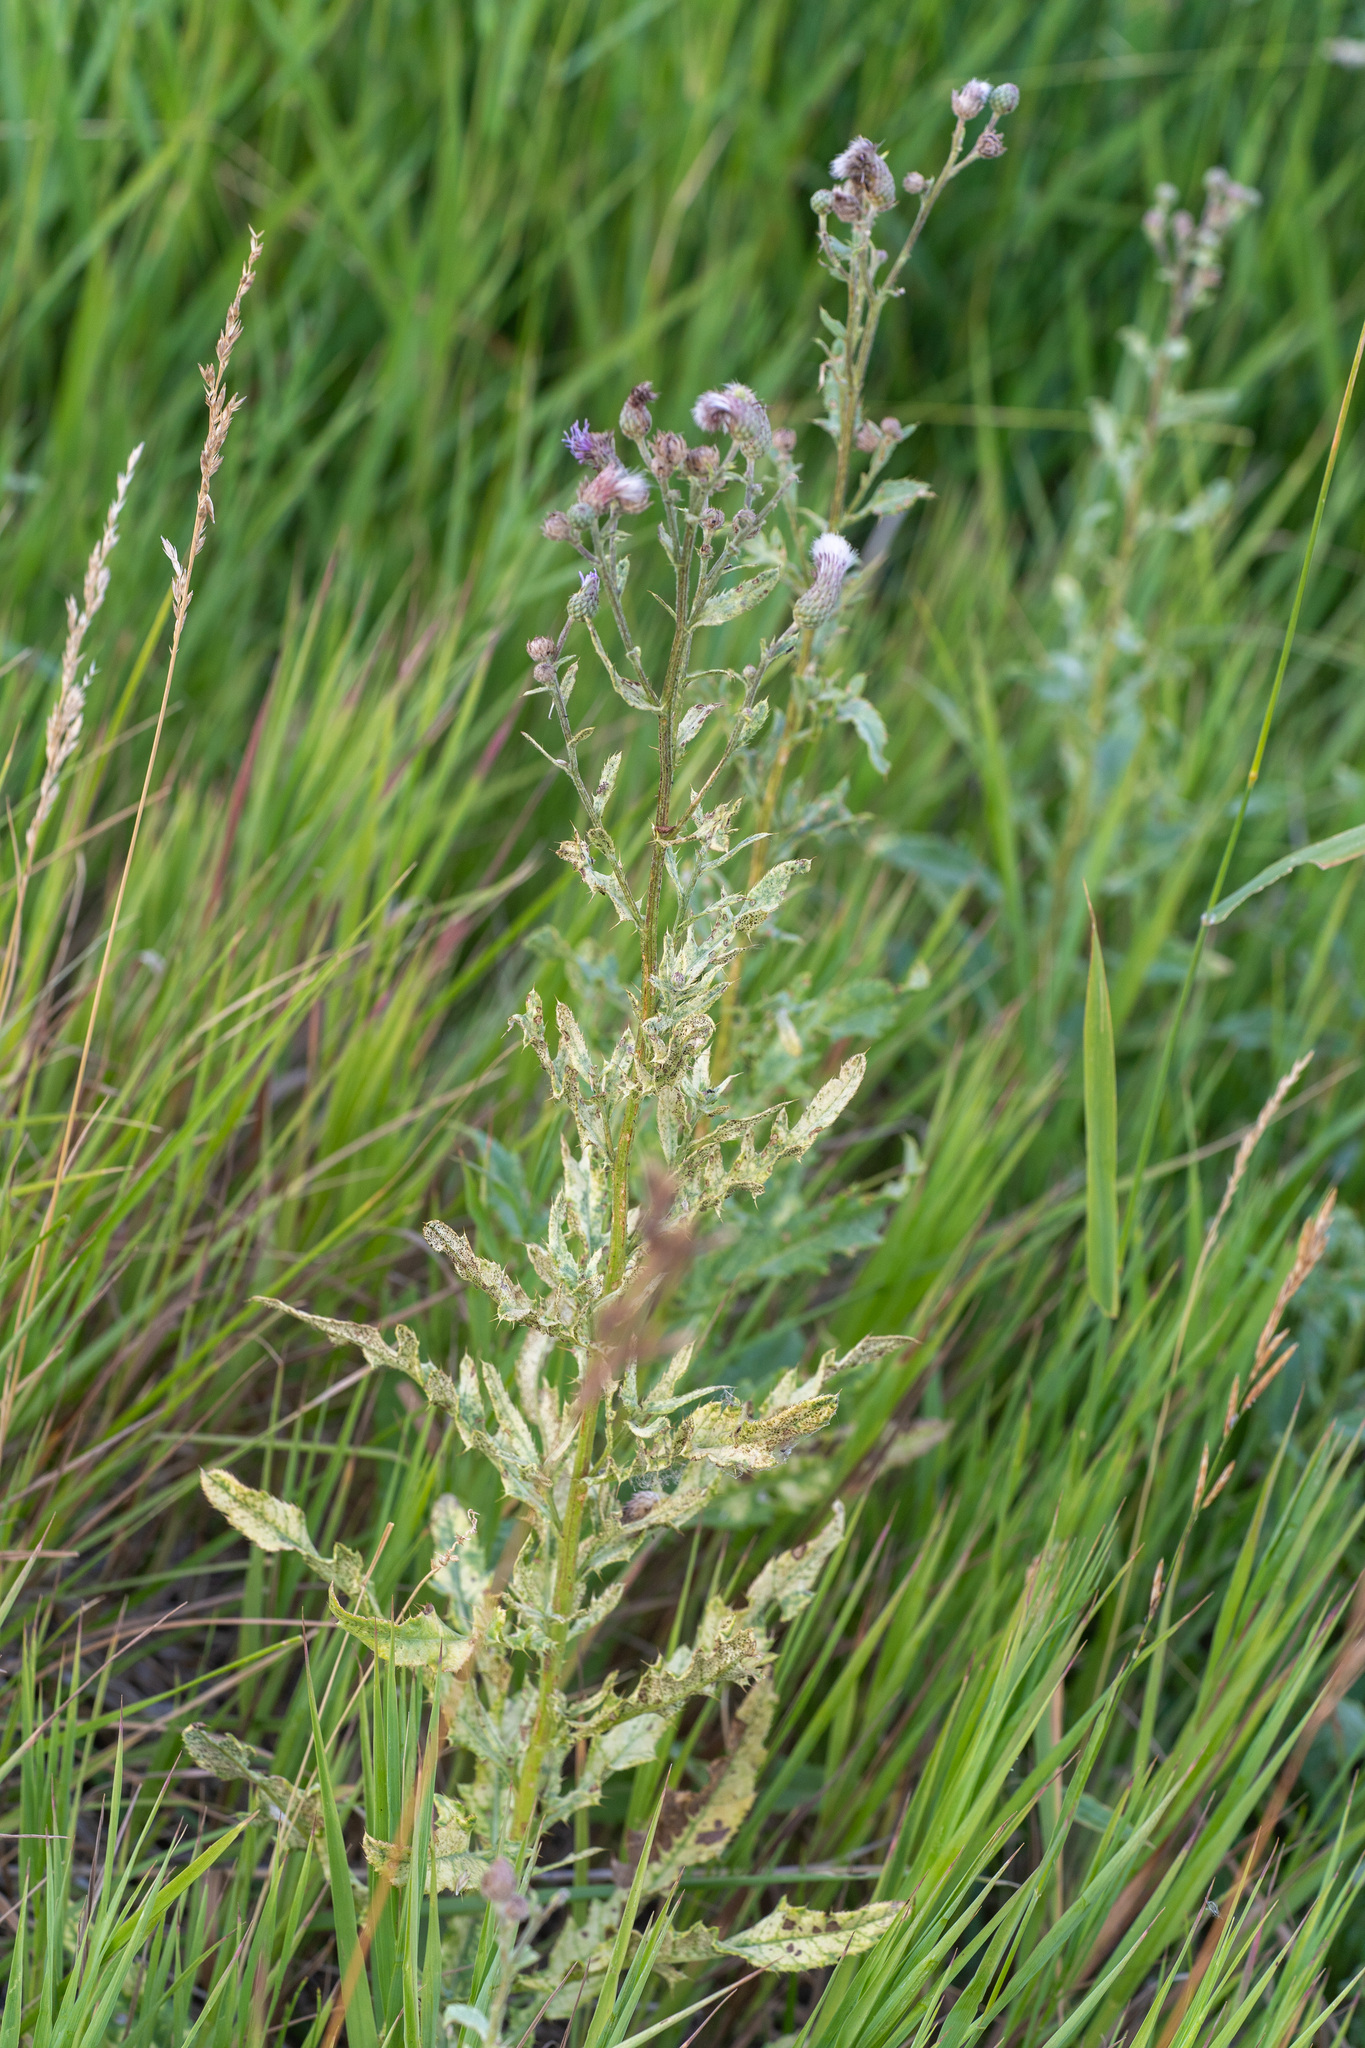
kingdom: Plantae
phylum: Tracheophyta
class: Magnoliopsida
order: Asterales
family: Asteraceae
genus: Cirsium
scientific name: Cirsium arvense
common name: Creeping thistle
